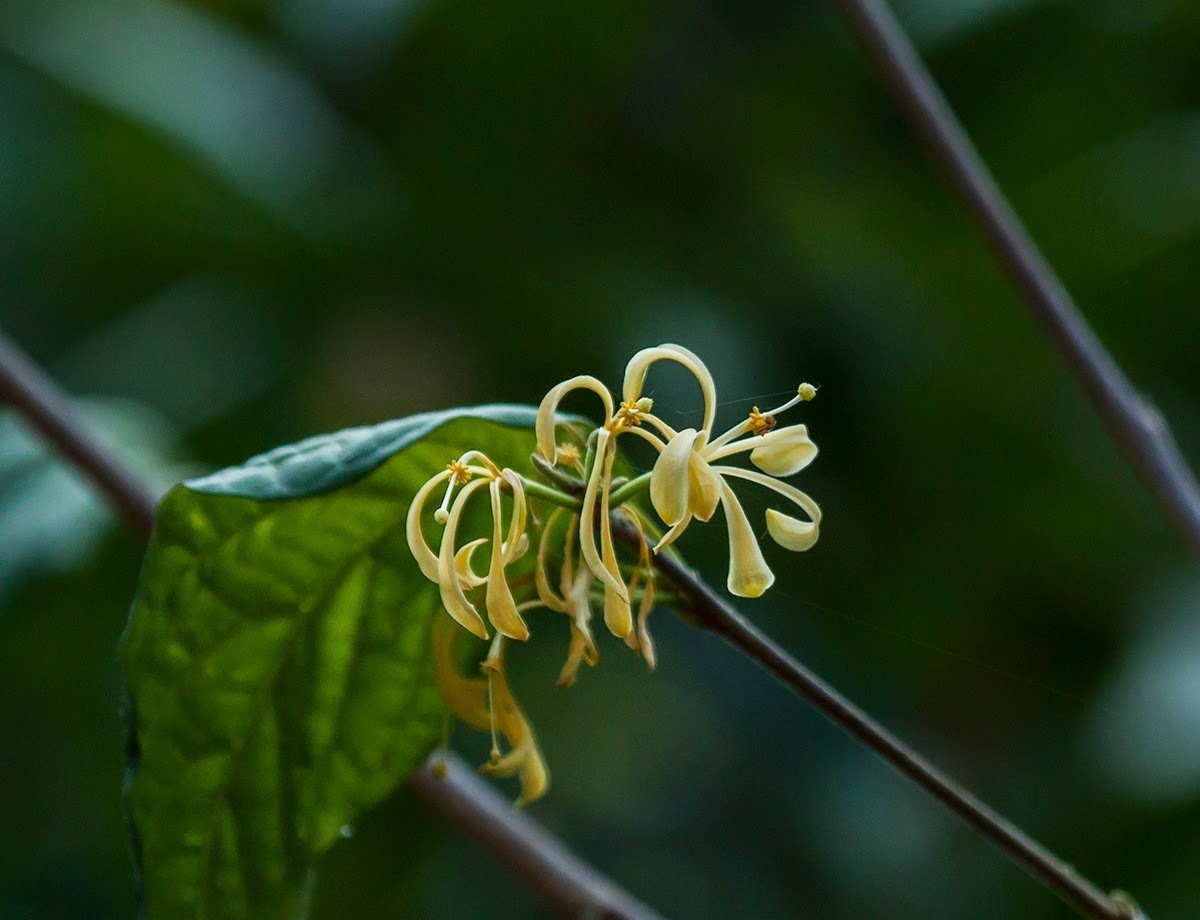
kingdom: Plantae
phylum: Tracheophyta
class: Magnoliopsida
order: Sapindales
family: Meliaceae
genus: Turraea
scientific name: Turraea pubescens
